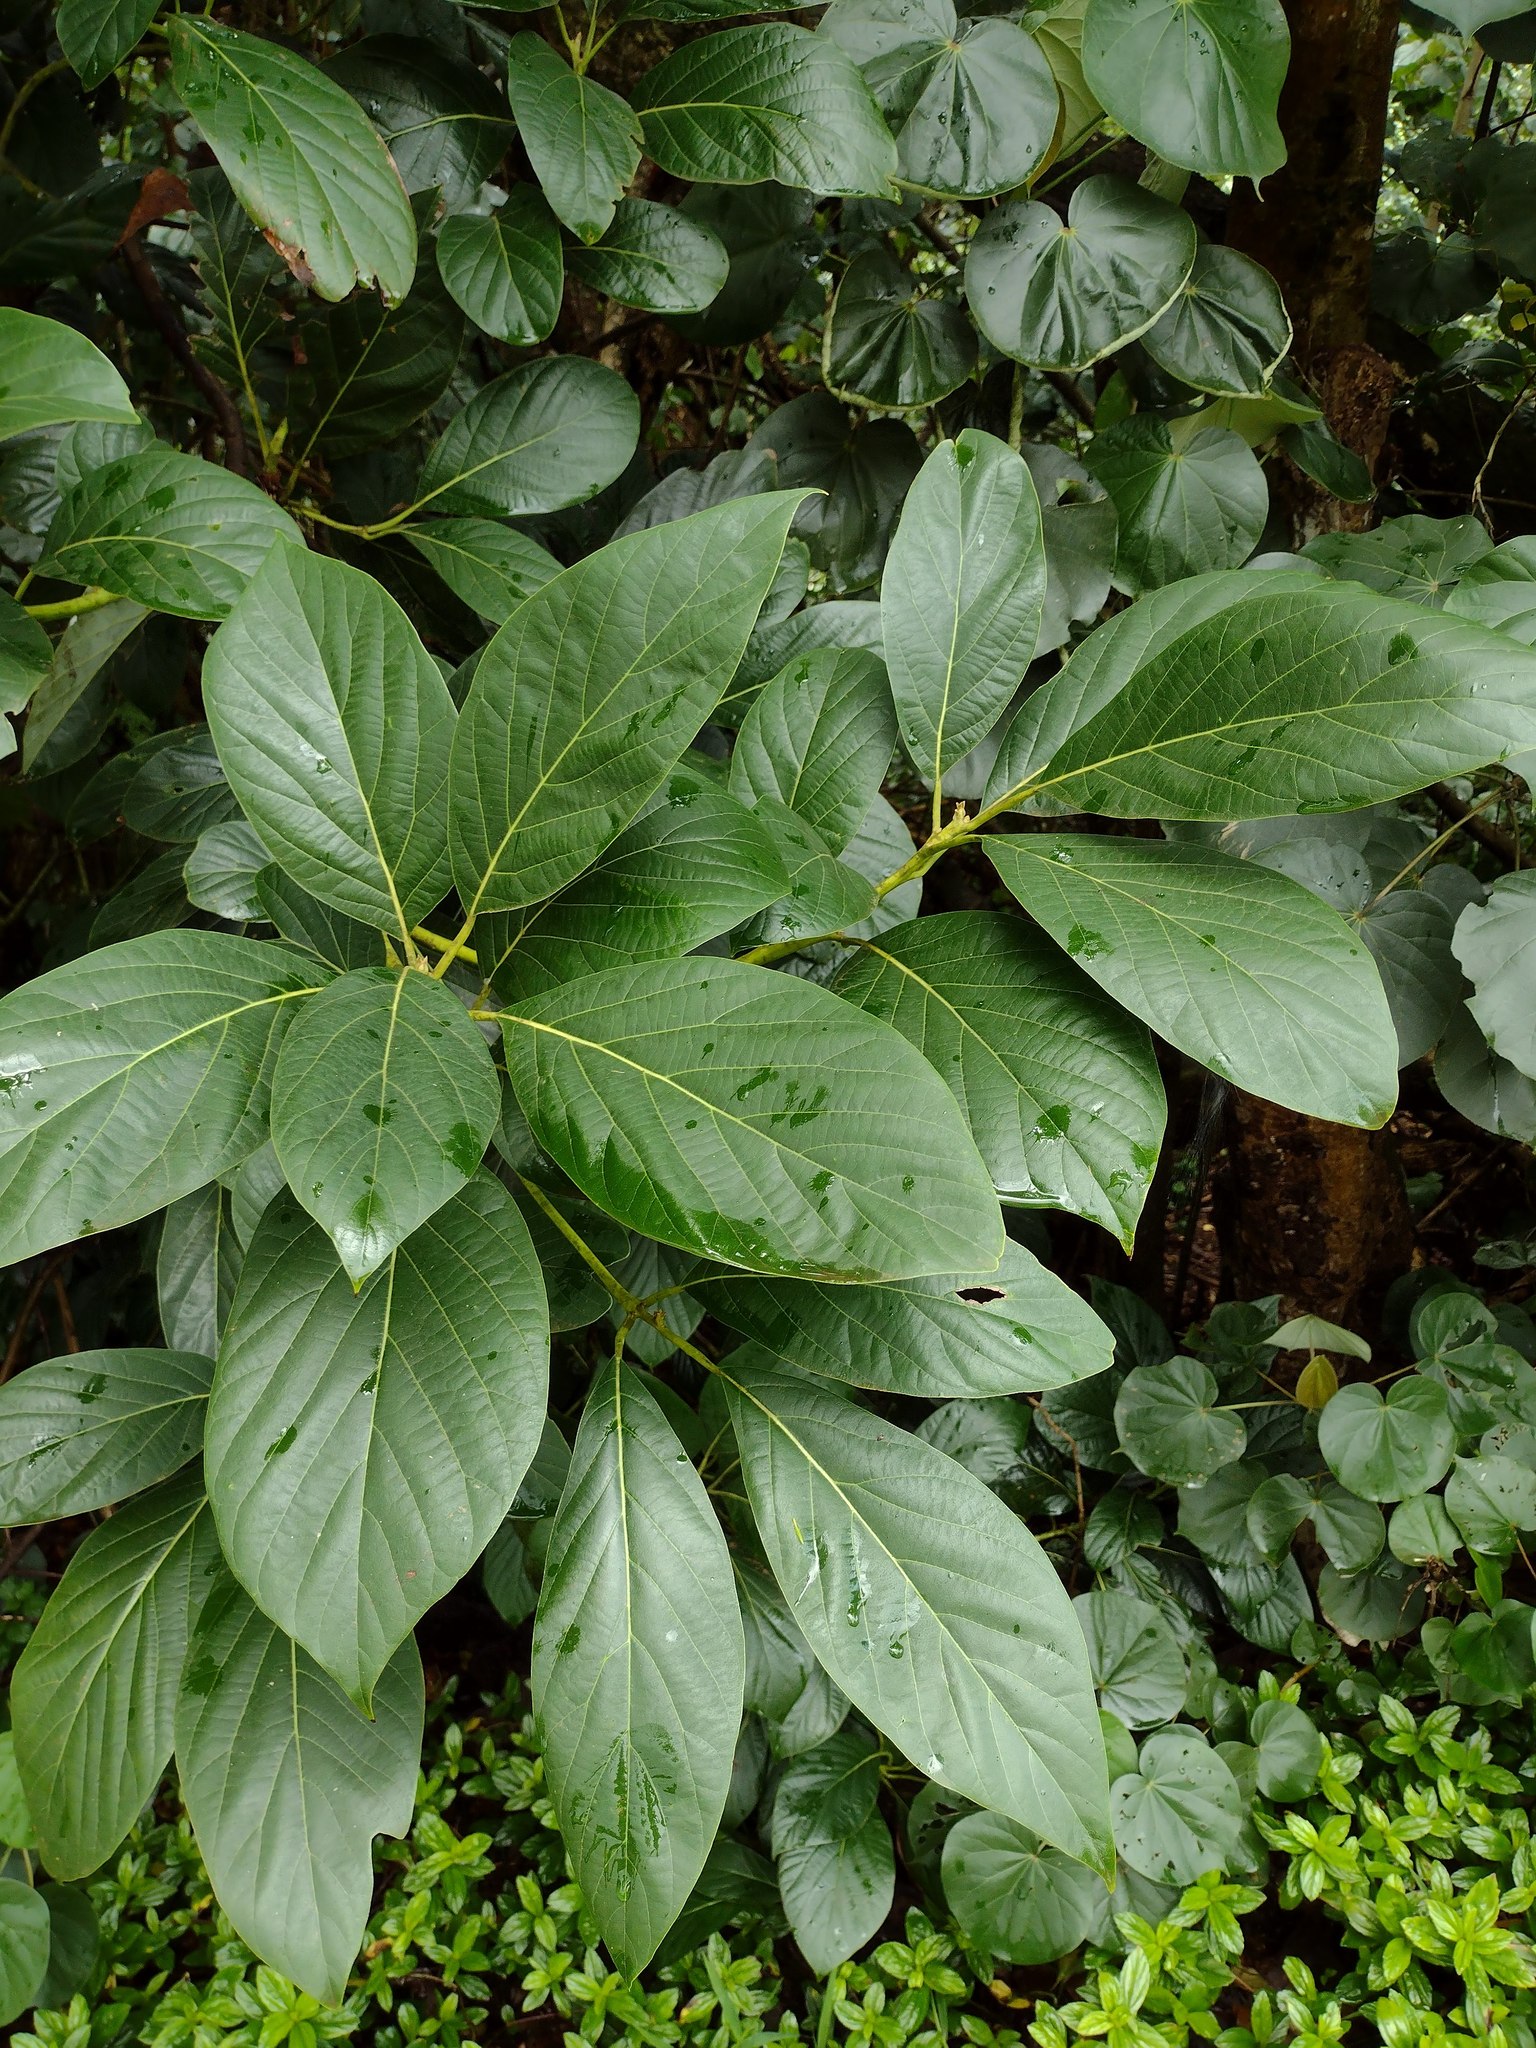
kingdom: Plantae
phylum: Tracheophyta
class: Magnoliopsida
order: Laurales
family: Lauraceae
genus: Persea
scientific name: Persea americana
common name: Avocado
